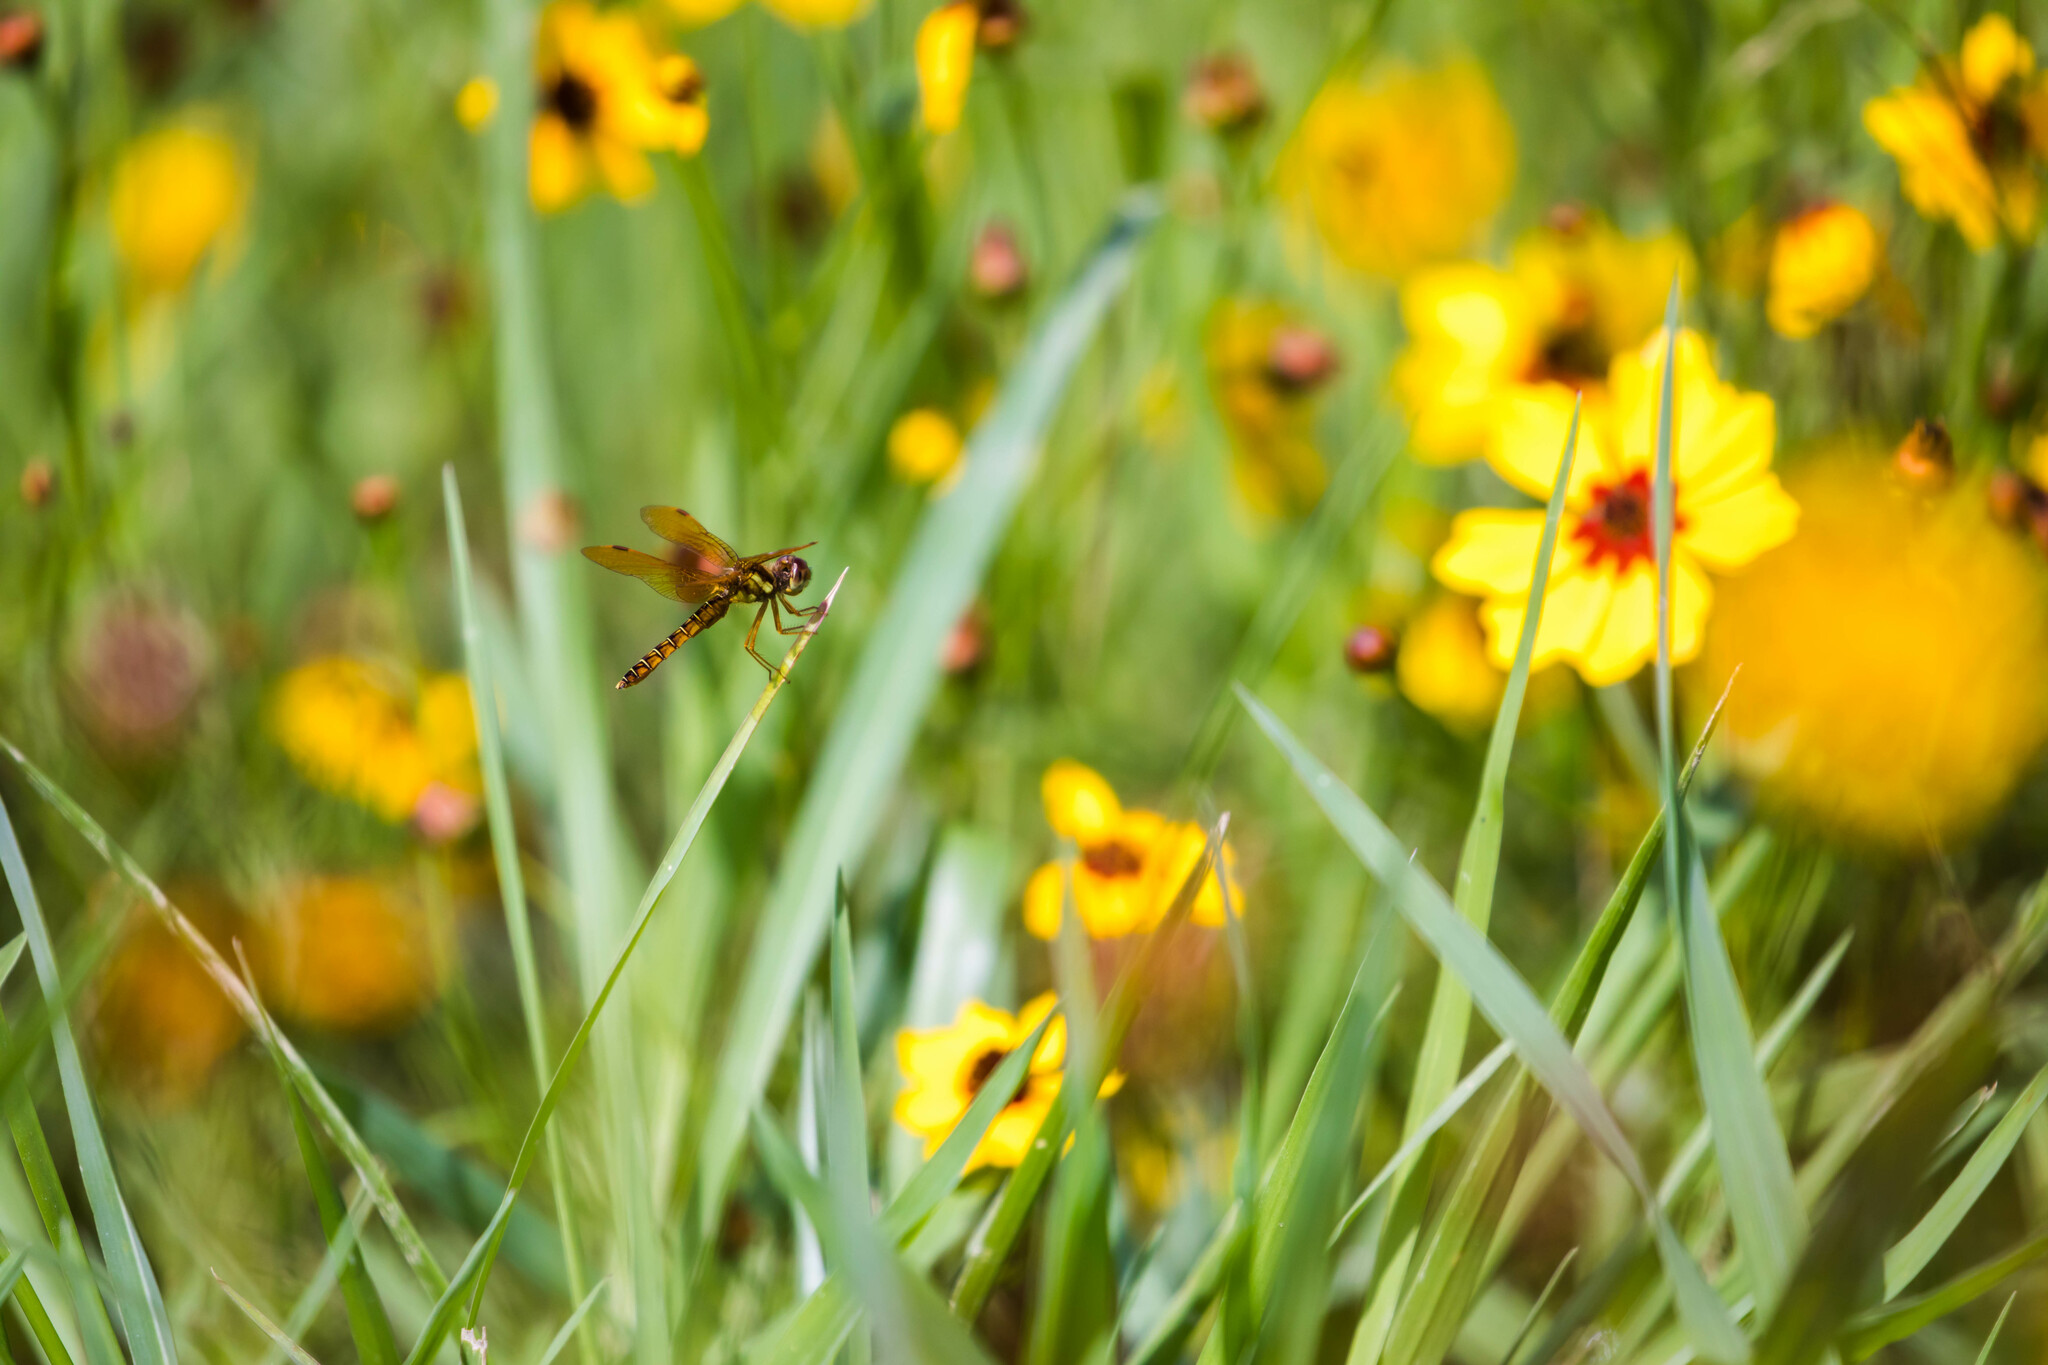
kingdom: Animalia
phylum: Arthropoda
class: Insecta
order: Odonata
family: Libellulidae
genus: Perithemis
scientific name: Perithemis tenera
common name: Eastern amberwing
